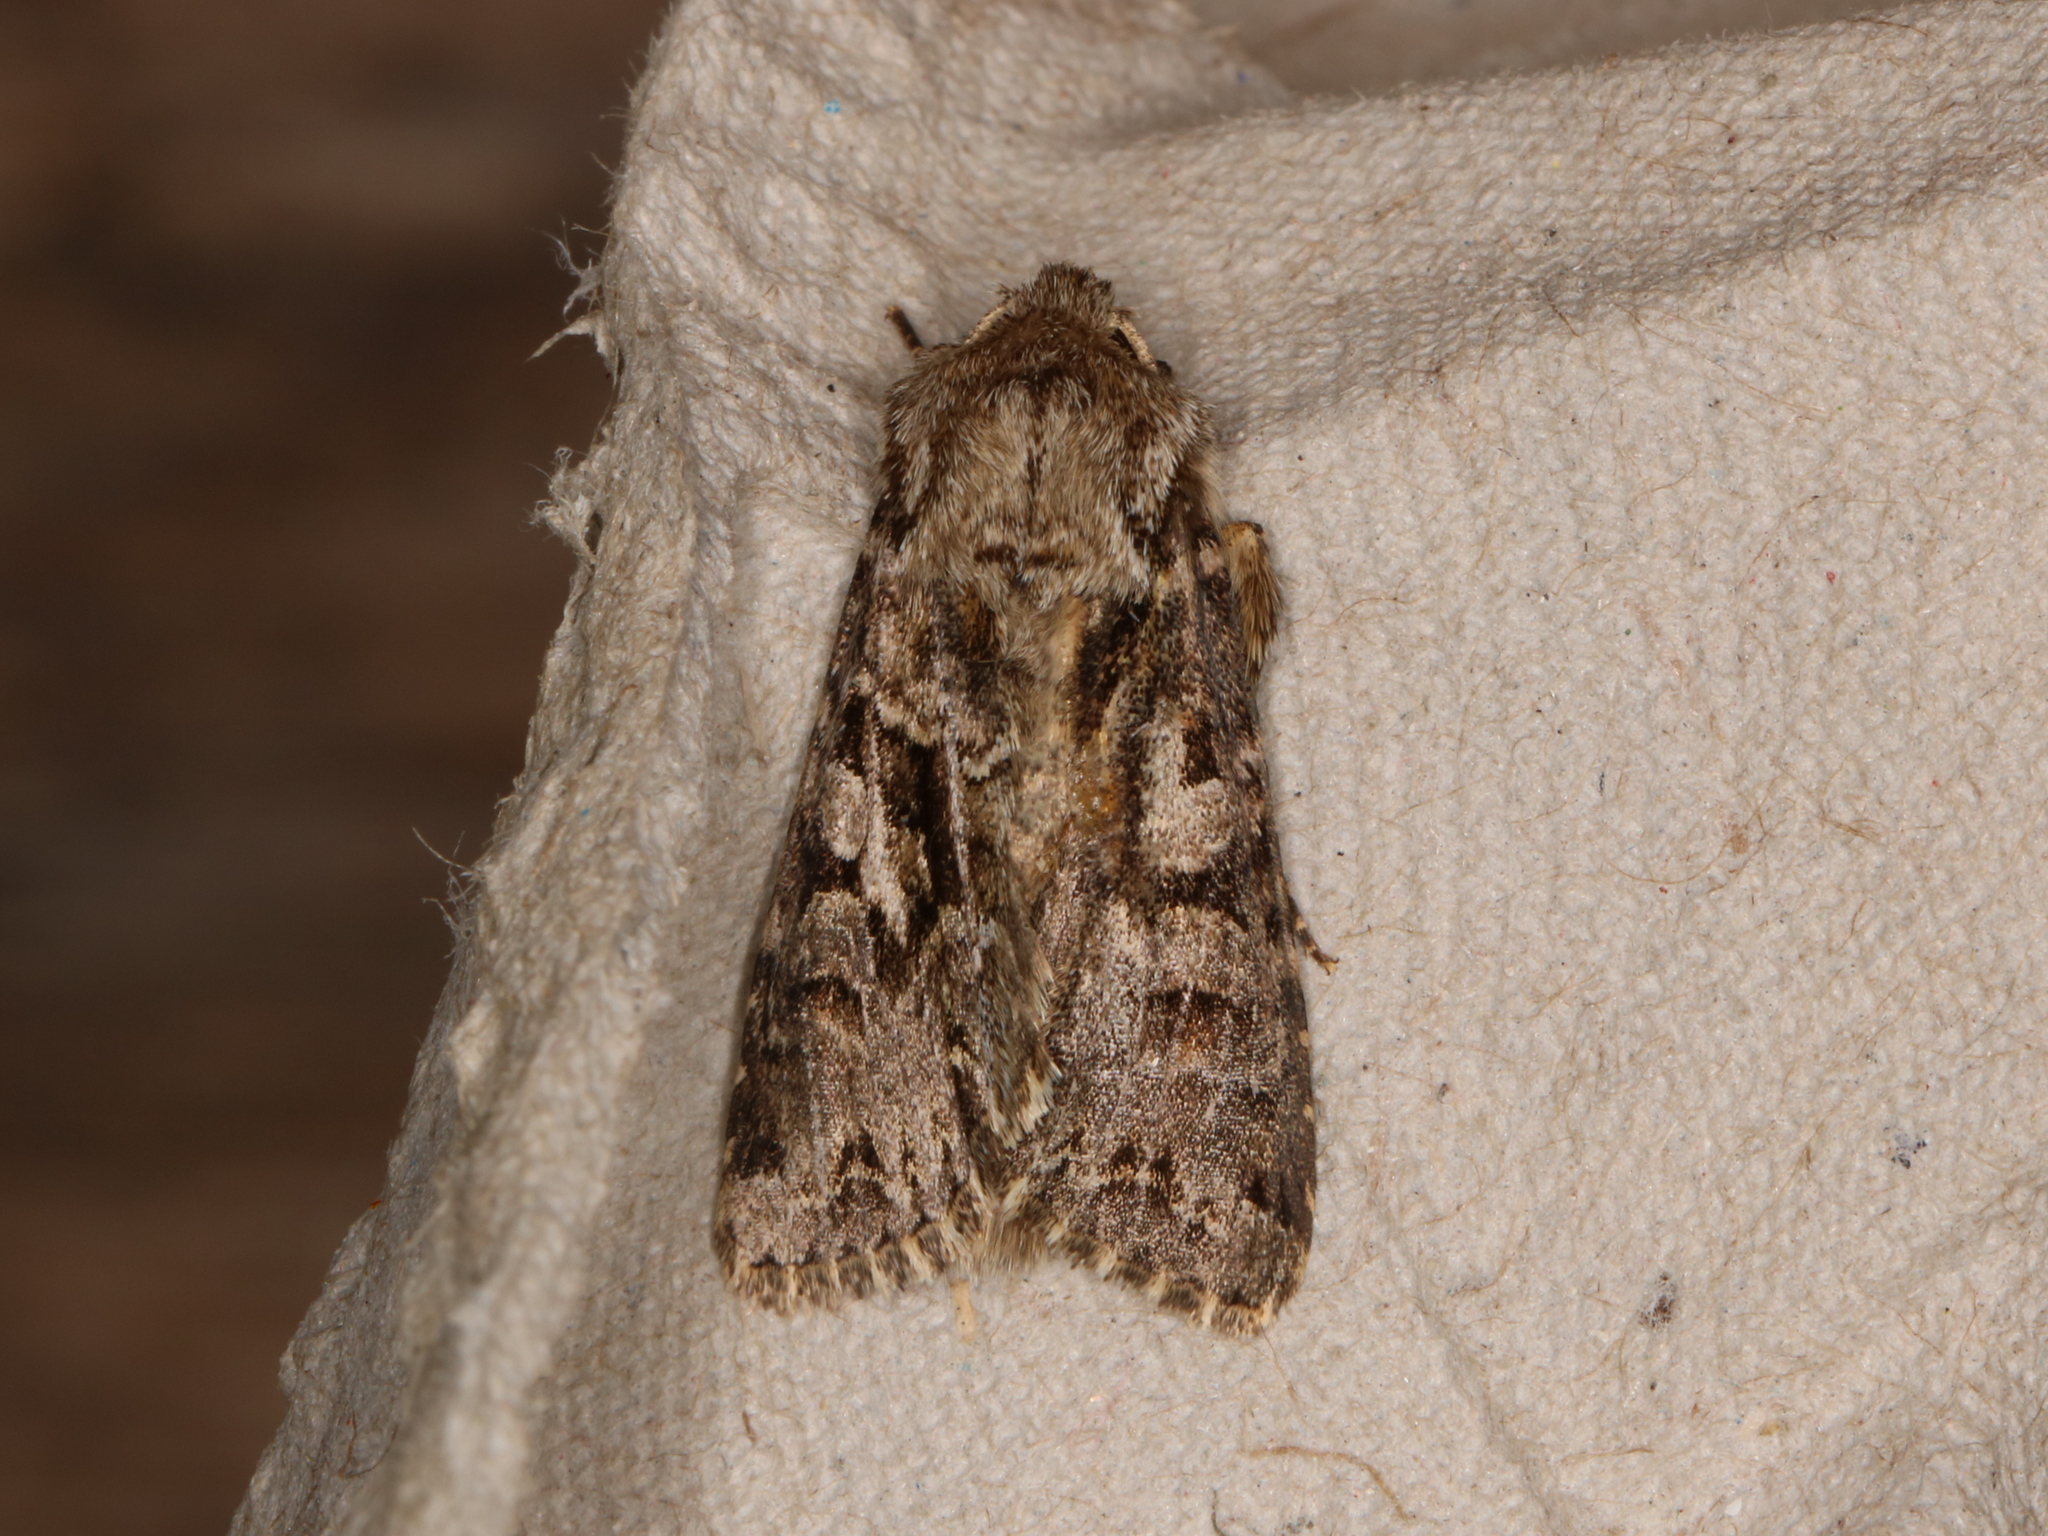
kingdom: Animalia
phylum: Arthropoda
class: Insecta
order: Lepidoptera
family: Noctuidae
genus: Hada
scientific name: Hada plebeja
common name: Shears
